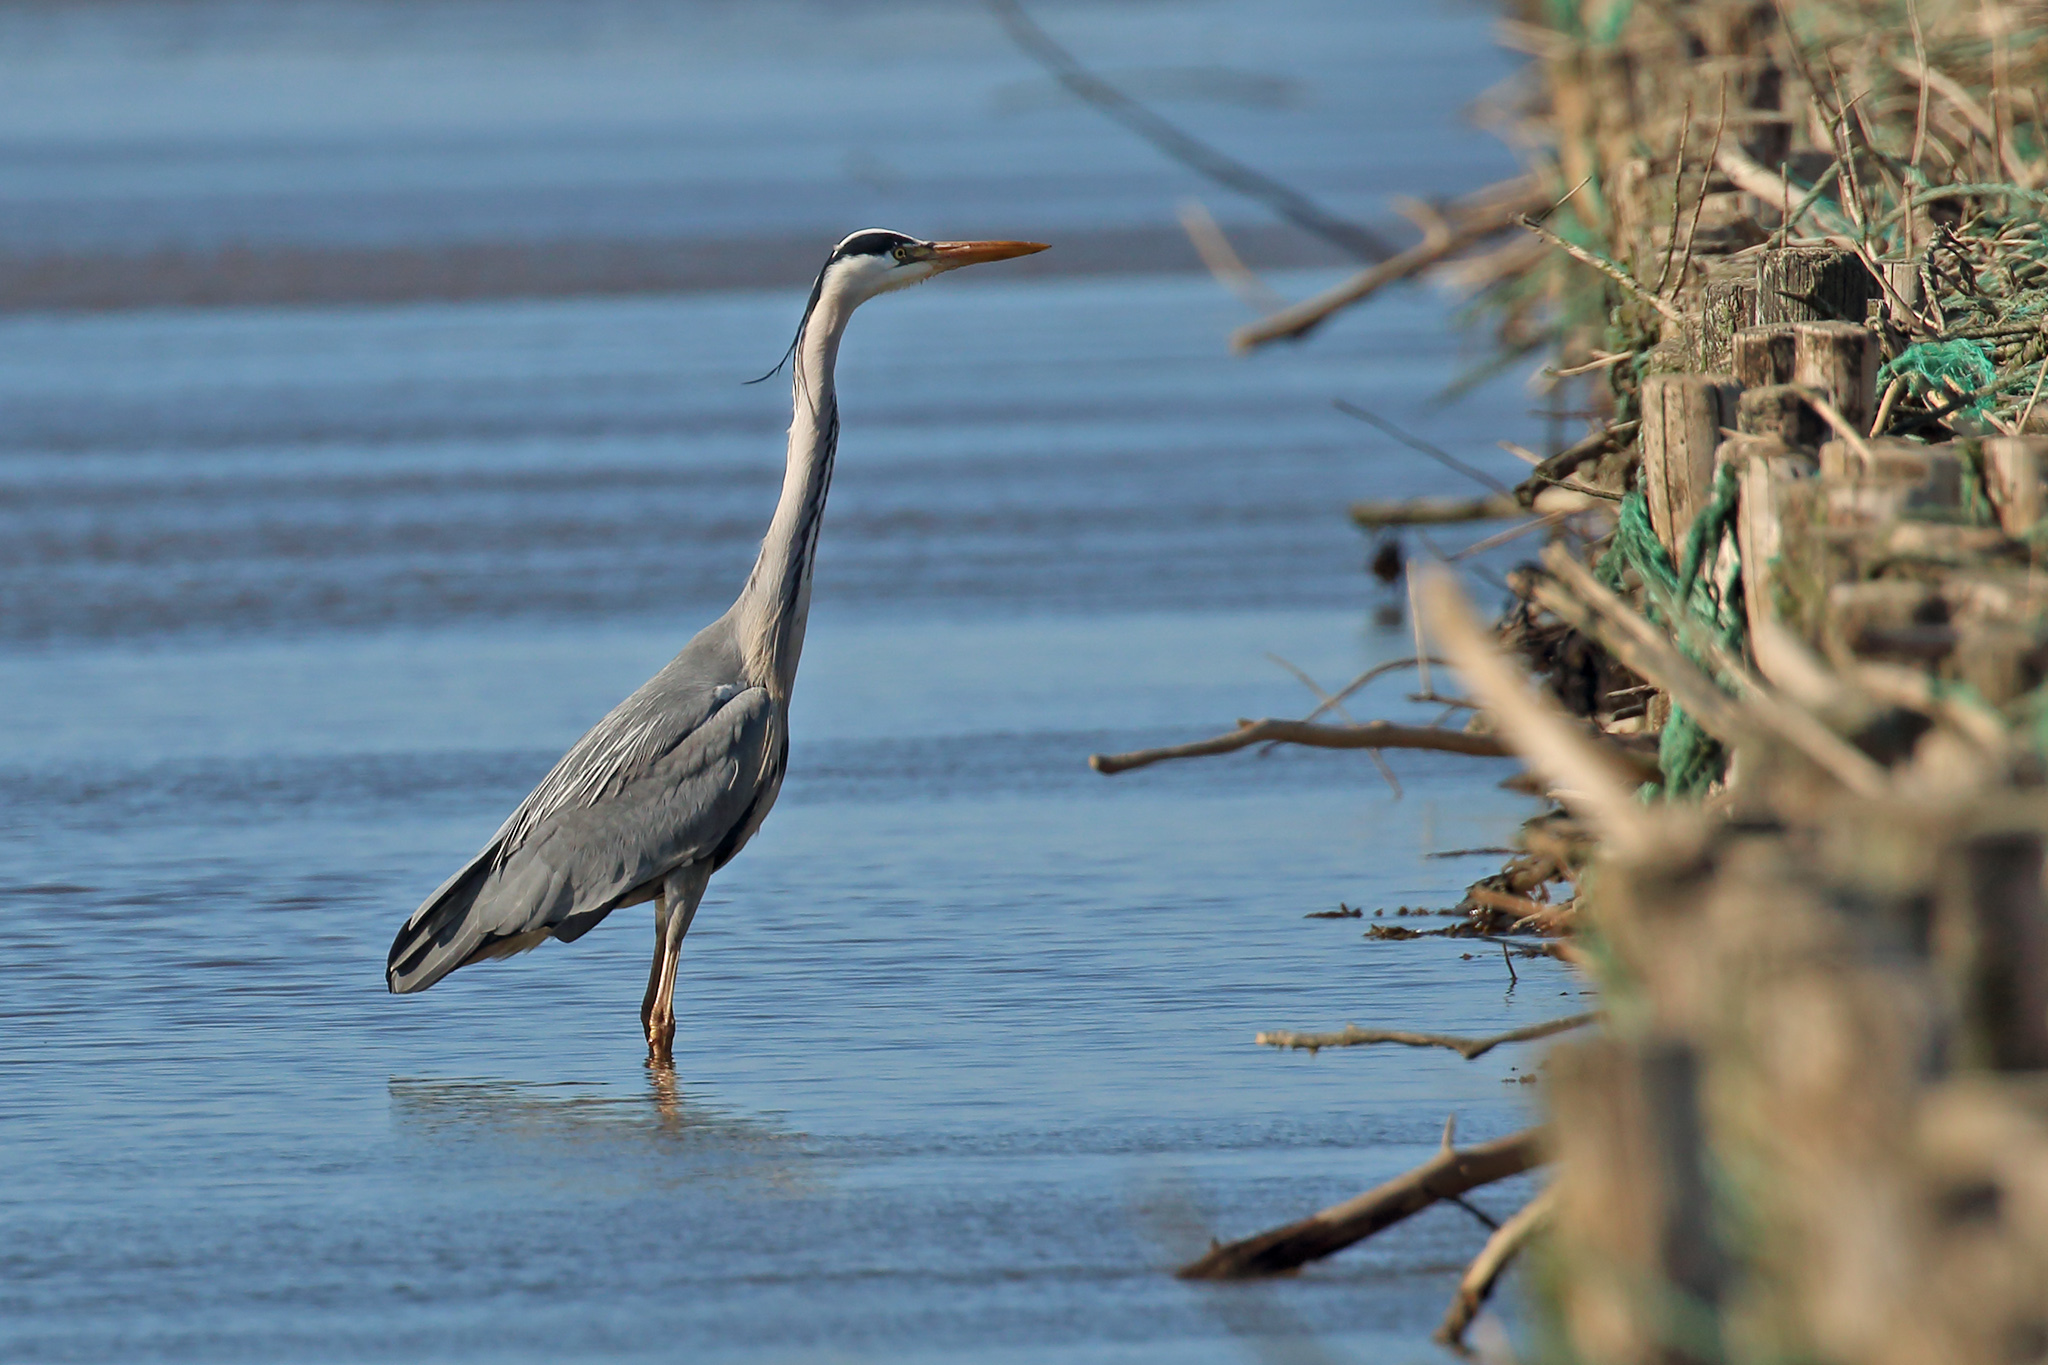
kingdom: Animalia
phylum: Chordata
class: Aves
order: Pelecaniformes
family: Ardeidae
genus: Ardea
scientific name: Ardea cinerea
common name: Grey heron
